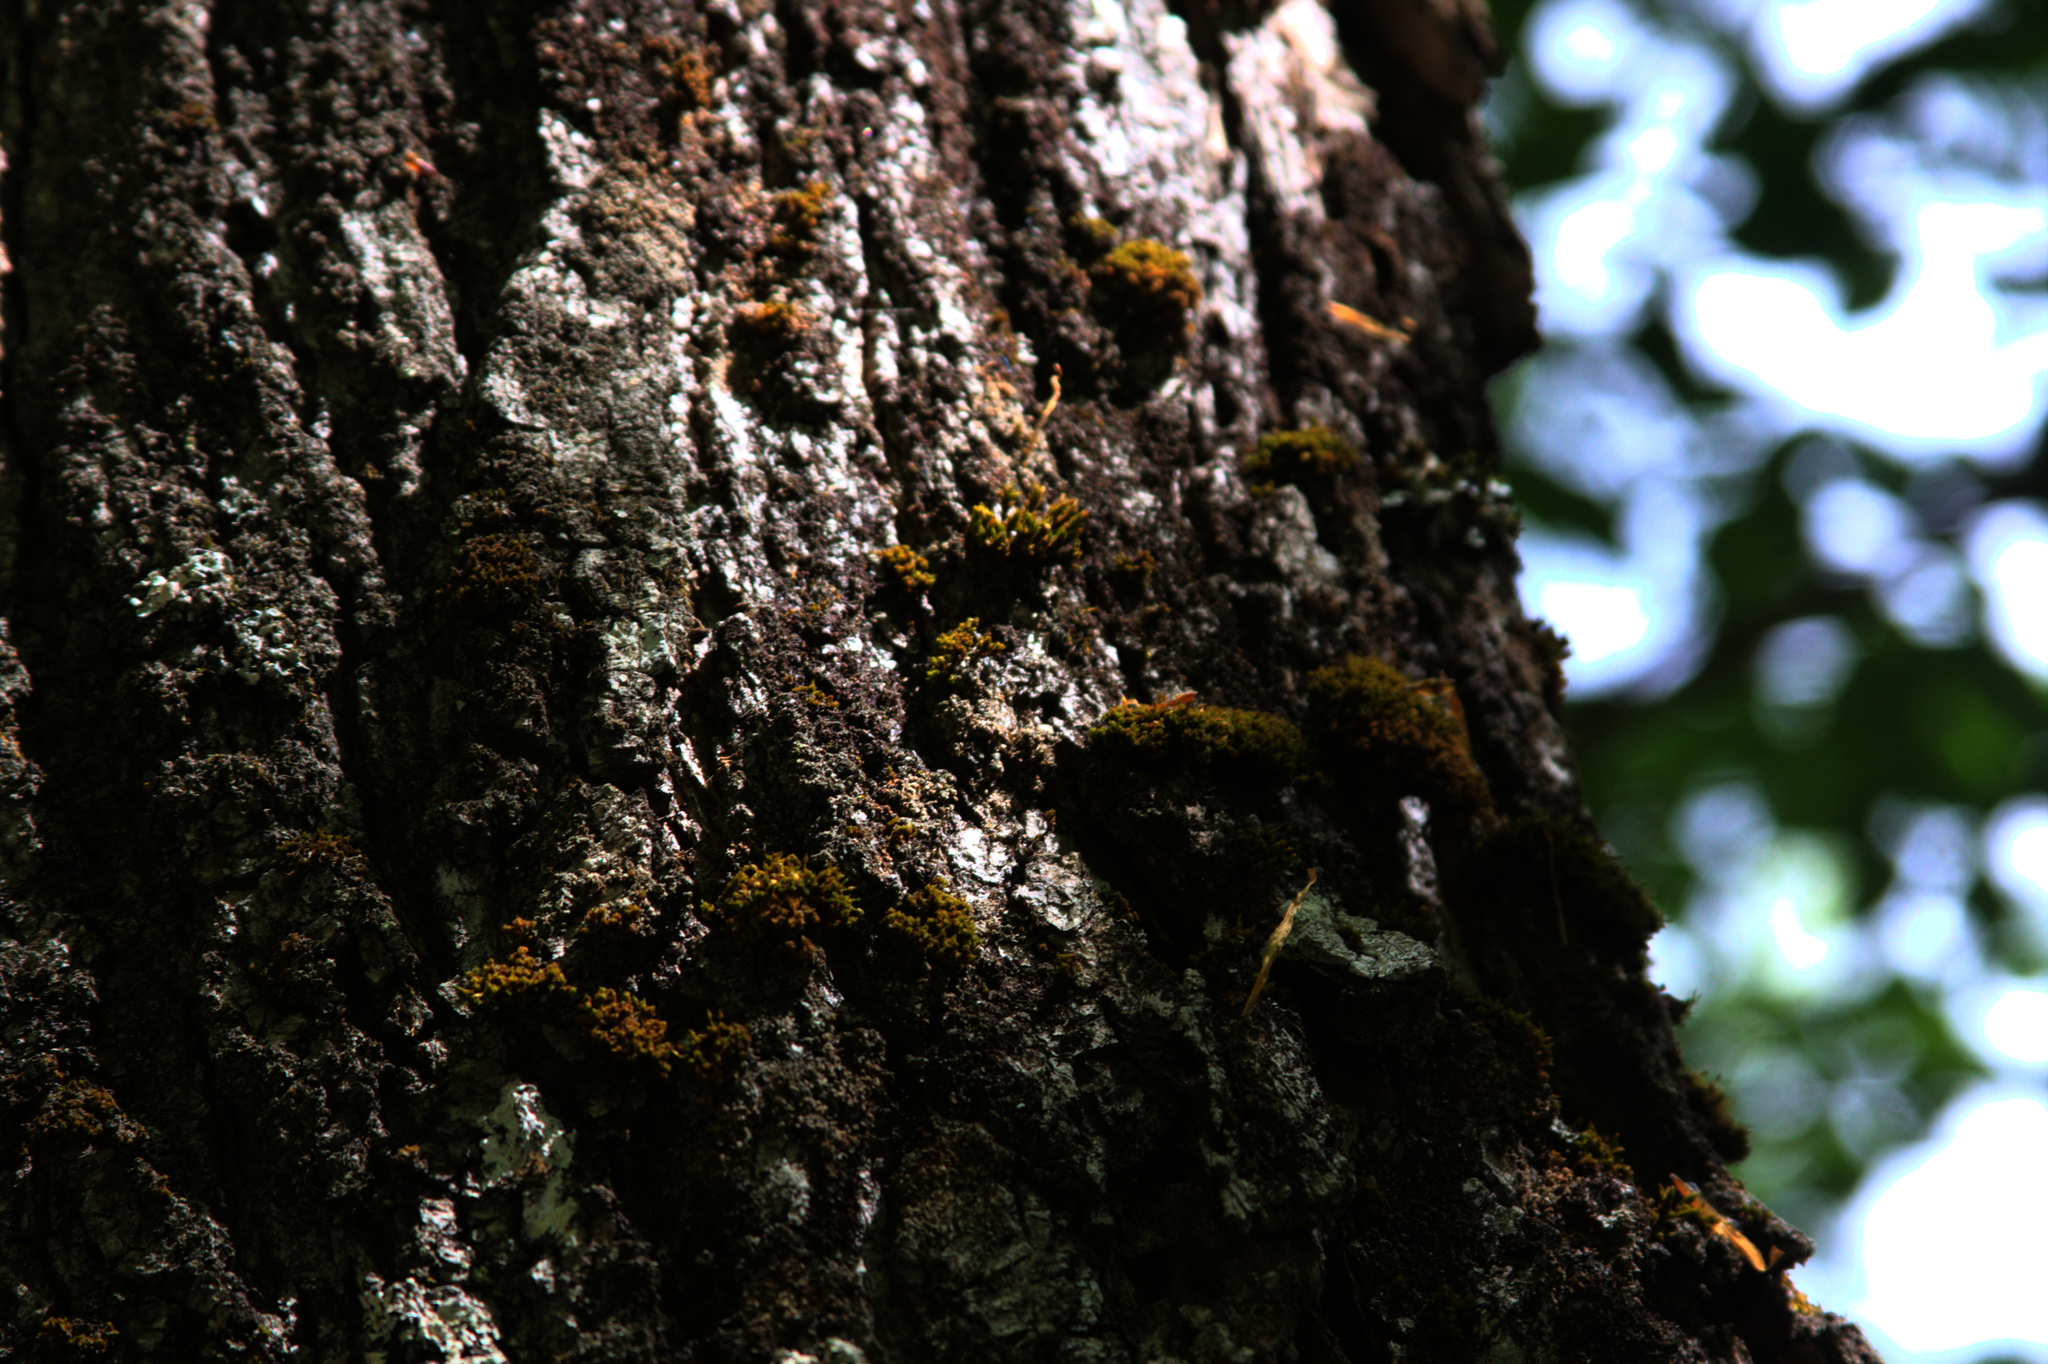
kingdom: Plantae
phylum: Bryophyta
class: Bryopsida
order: Orthotrichales
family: Orthotrichaceae
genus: Ulota
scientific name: Ulota crispa
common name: Crisped pincushion moss
